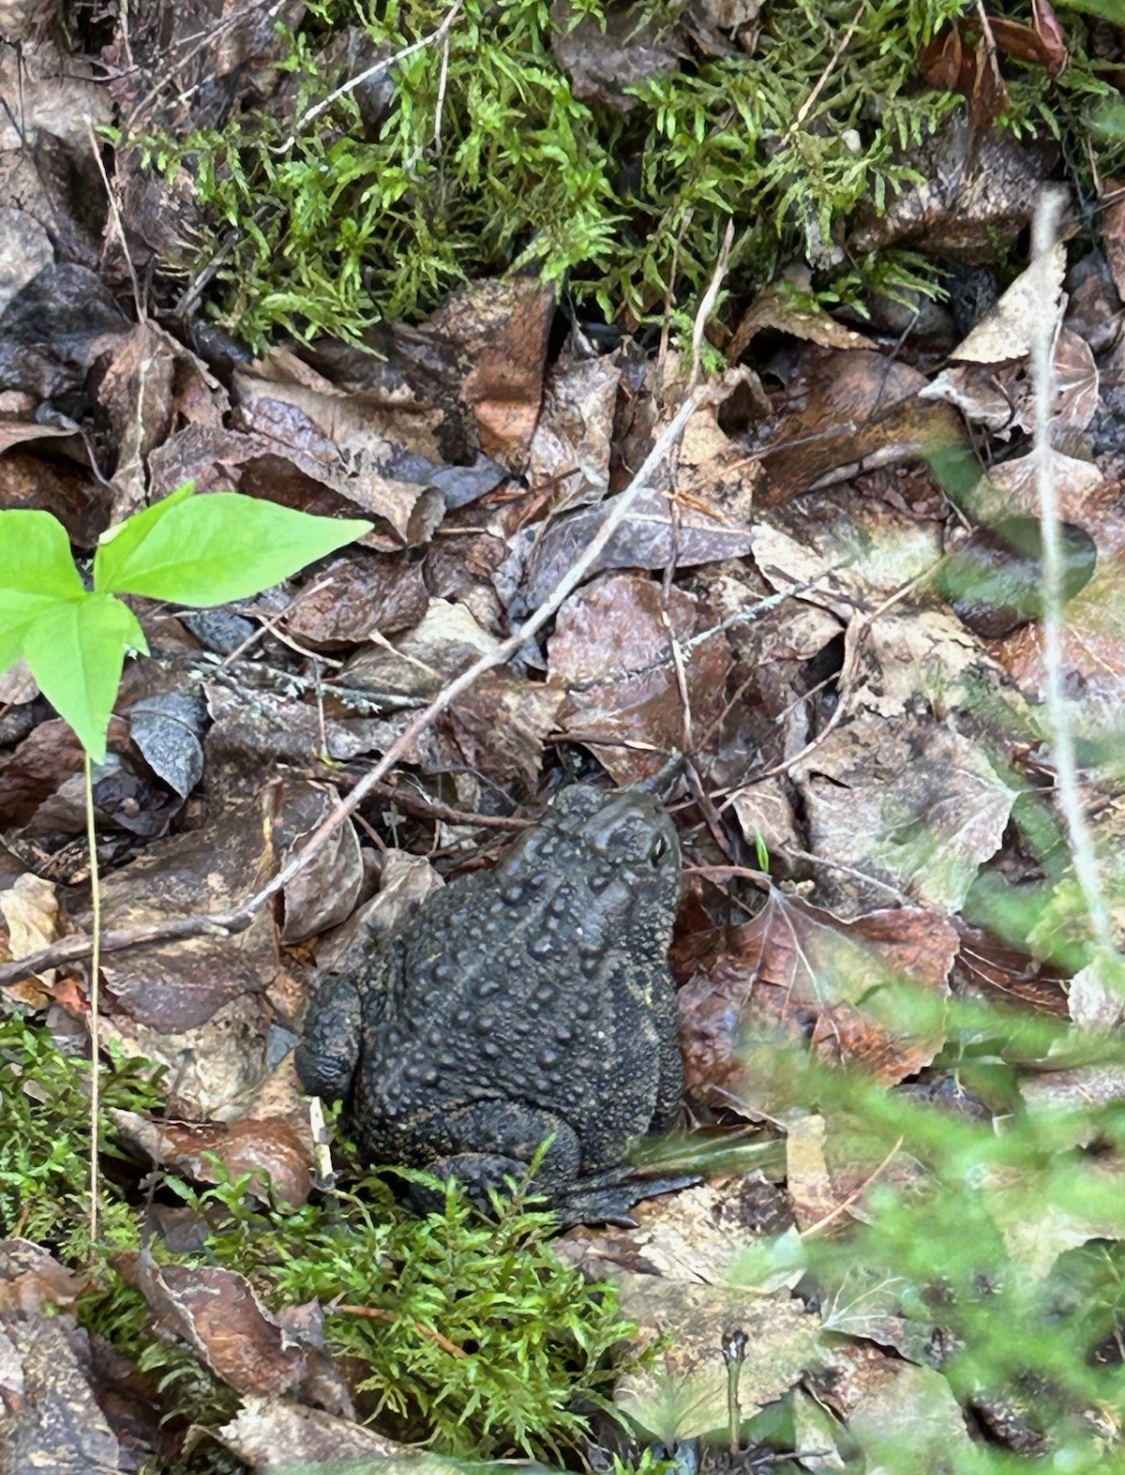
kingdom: Animalia
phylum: Chordata
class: Amphibia
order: Anura
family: Bufonidae
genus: Anaxyrus
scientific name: Anaxyrus hemiophrys
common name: Canadian toad
